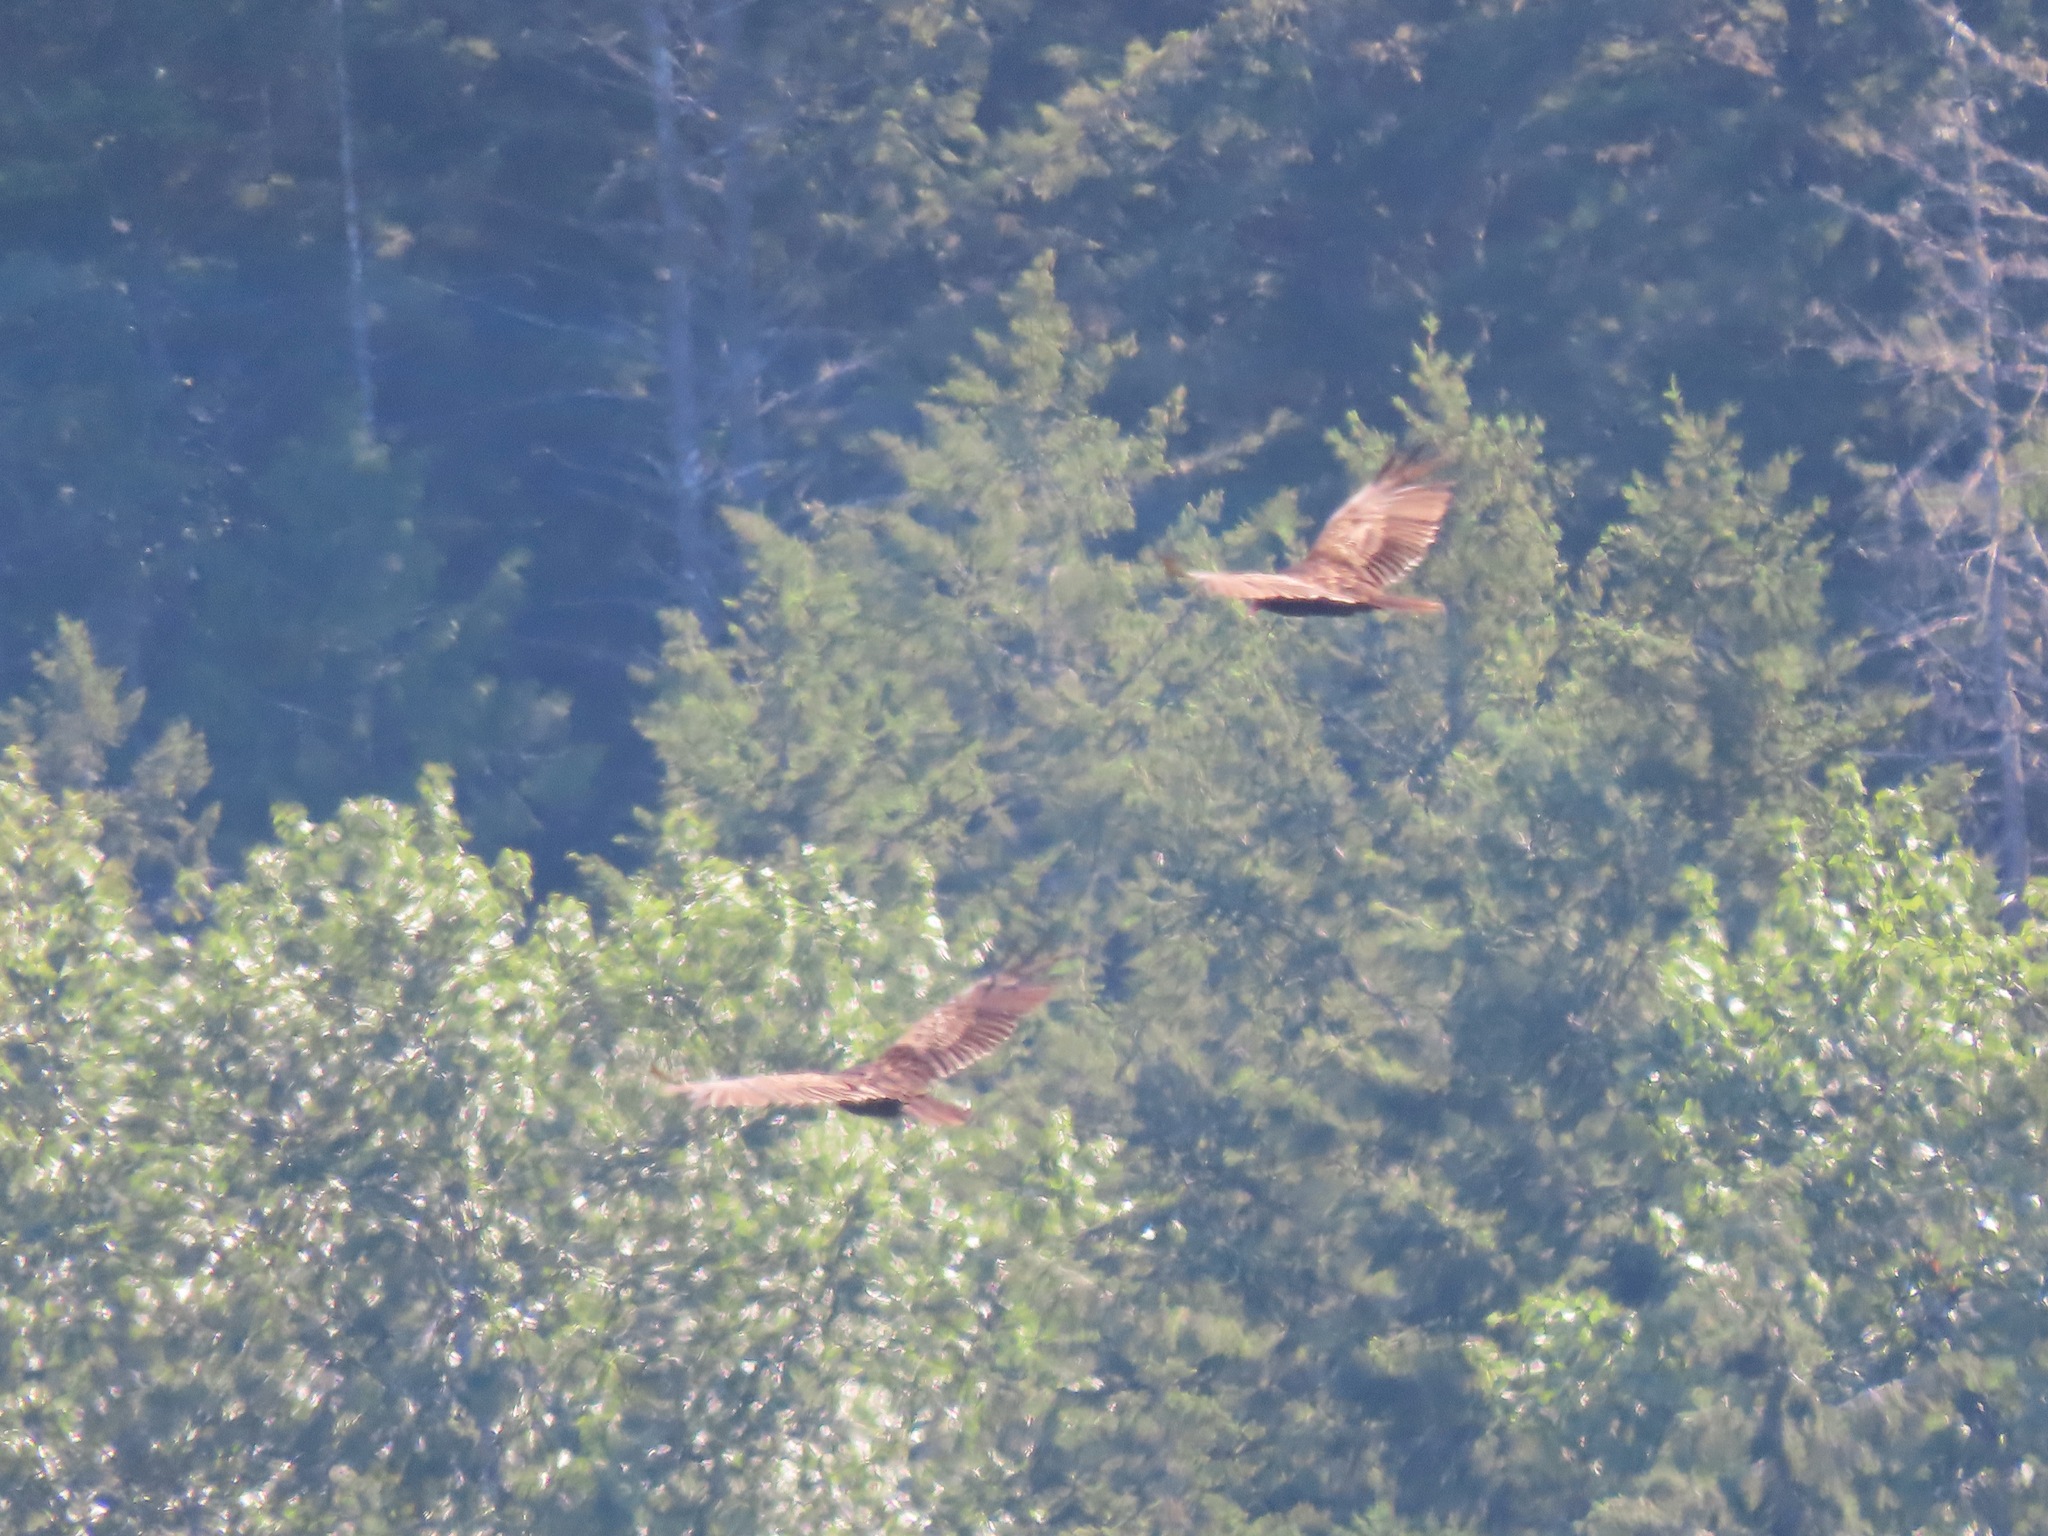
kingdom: Animalia
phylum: Chordata
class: Aves
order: Accipitriformes
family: Cathartidae
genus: Cathartes
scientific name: Cathartes aura
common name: Turkey vulture
